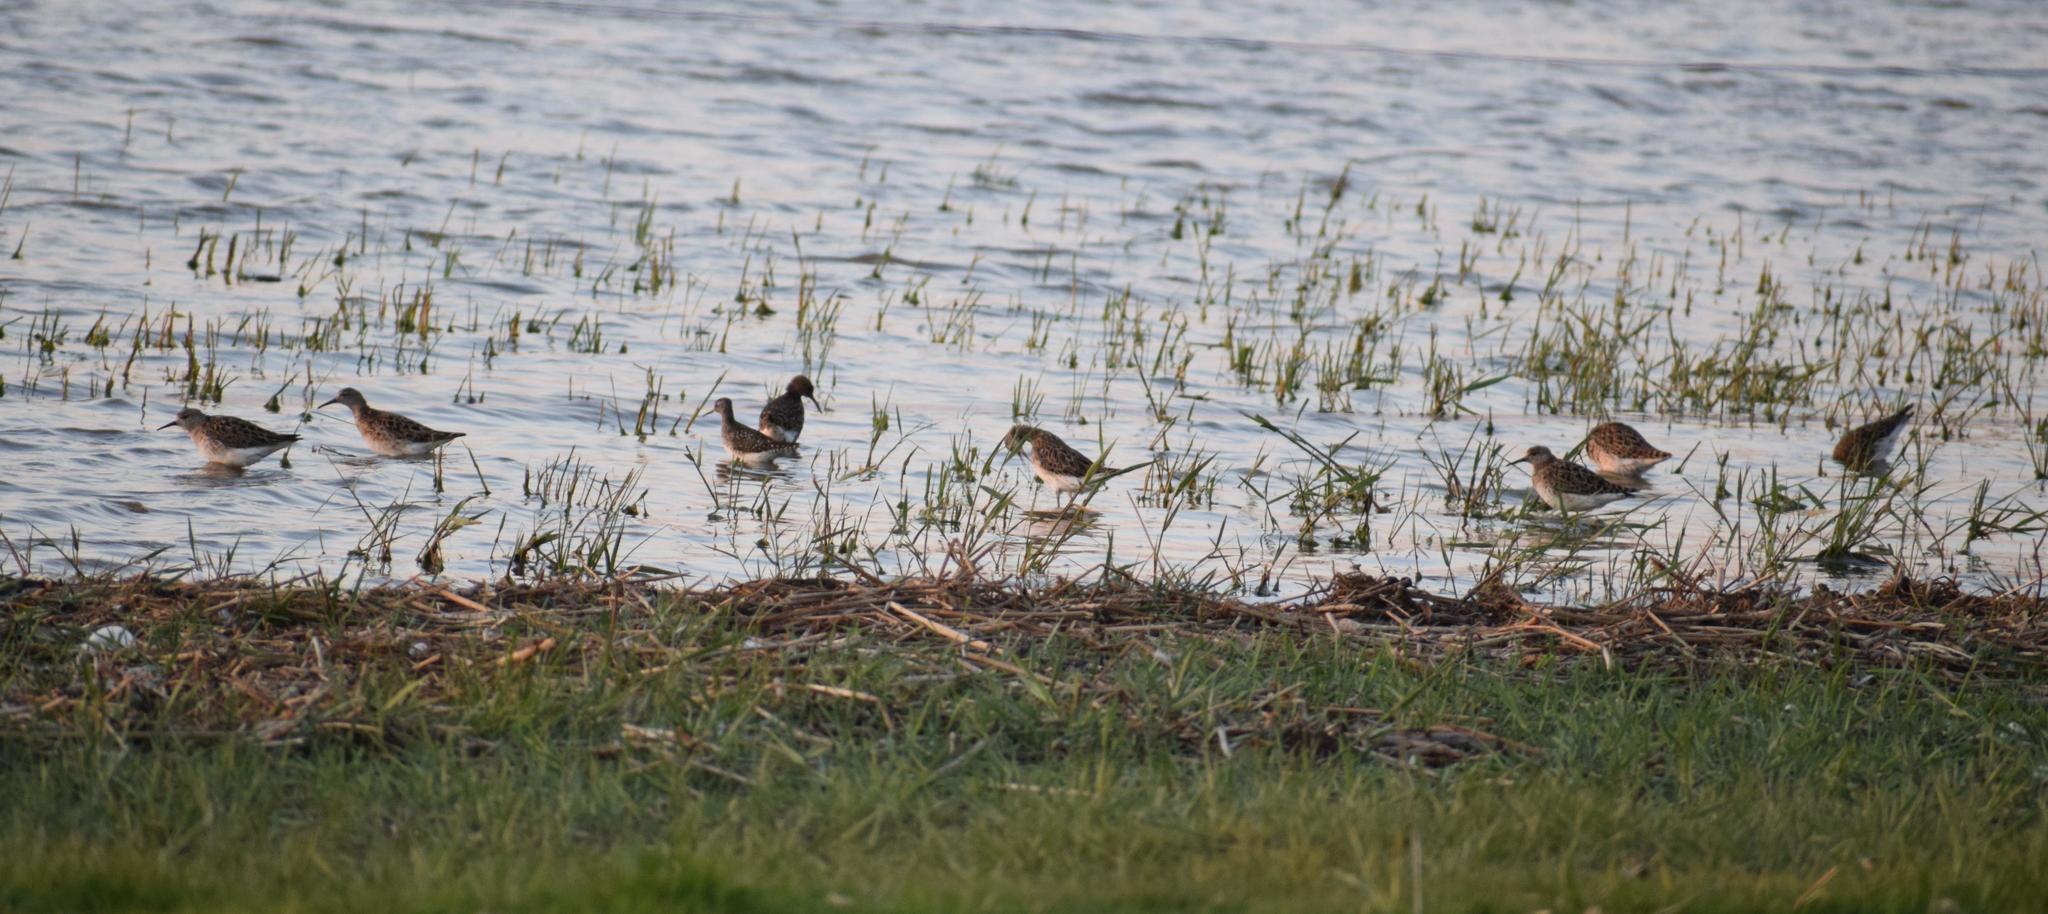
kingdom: Animalia
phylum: Chordata
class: Aves
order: Charadriiformes
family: Scolopacidae
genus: Calidris
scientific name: Calidris pugnax
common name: Ruff
